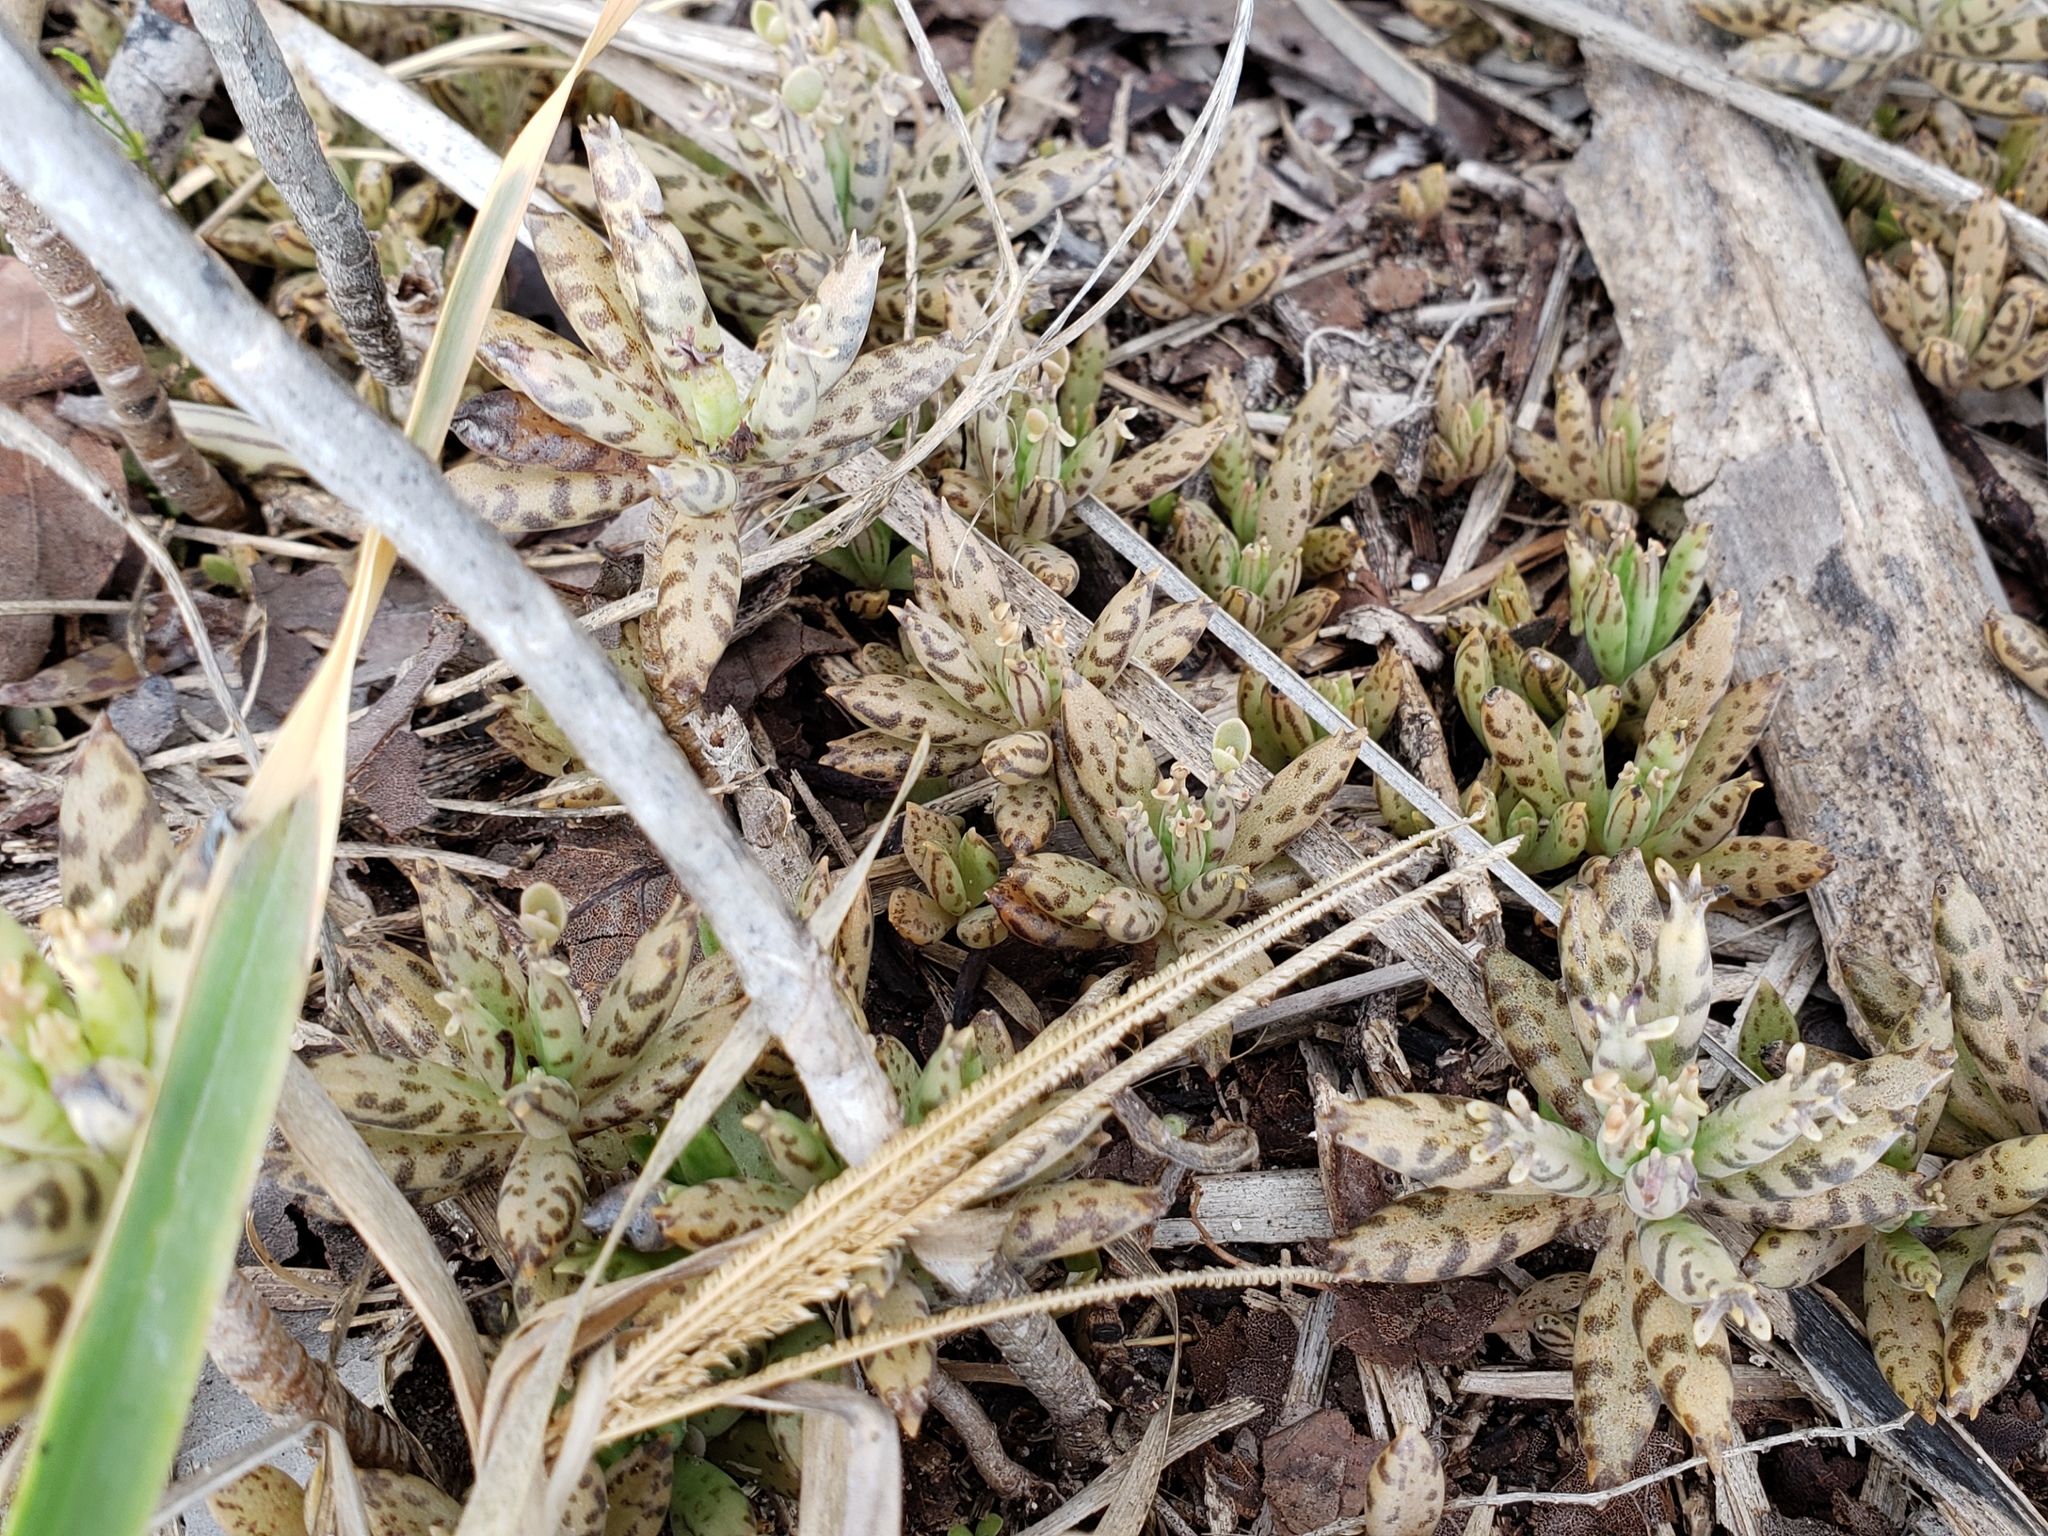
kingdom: Plantae
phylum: Tracheophyta
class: Magnoliopsida
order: Saxifragales
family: Crassulaceae
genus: Kalanchoe
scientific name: Kalanchoe delagoensis
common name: Chandelier plant
